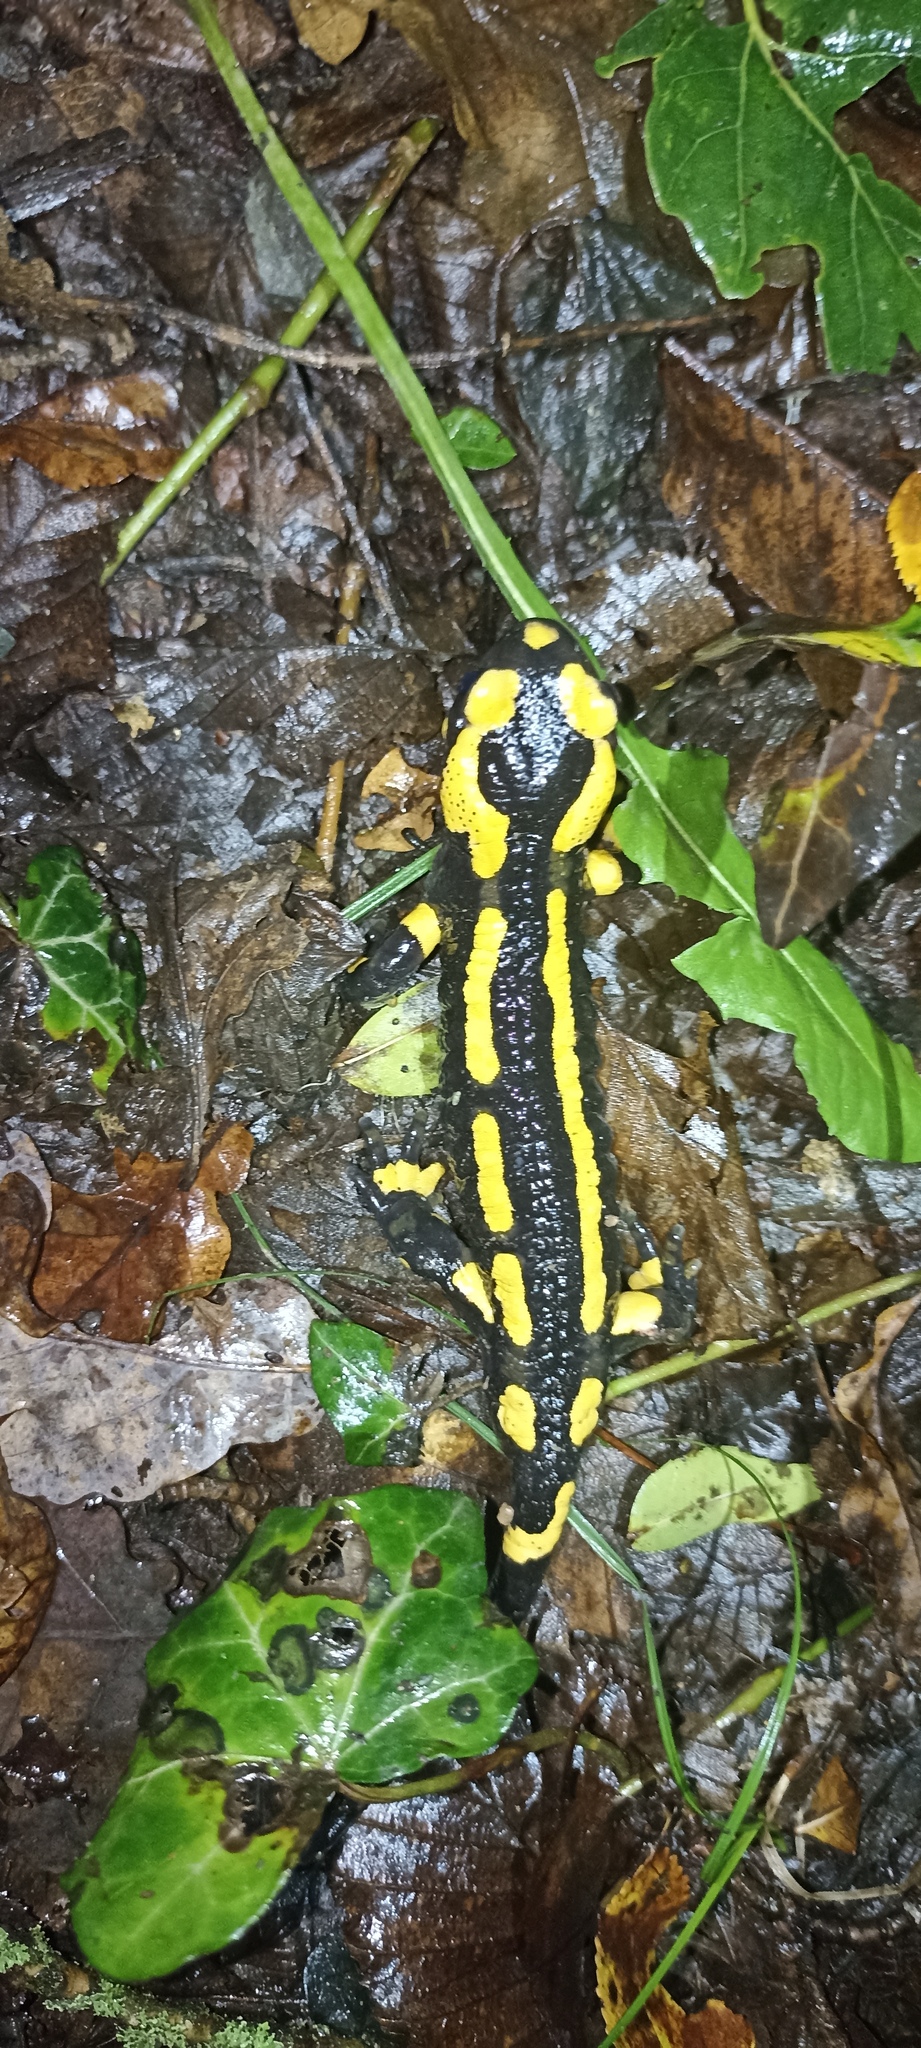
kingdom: Animalia
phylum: Chordata
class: Amphibia
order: Caudata
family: Salamandridae
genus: Salamandra
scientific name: Salamandra salamandra
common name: Fire salamander
